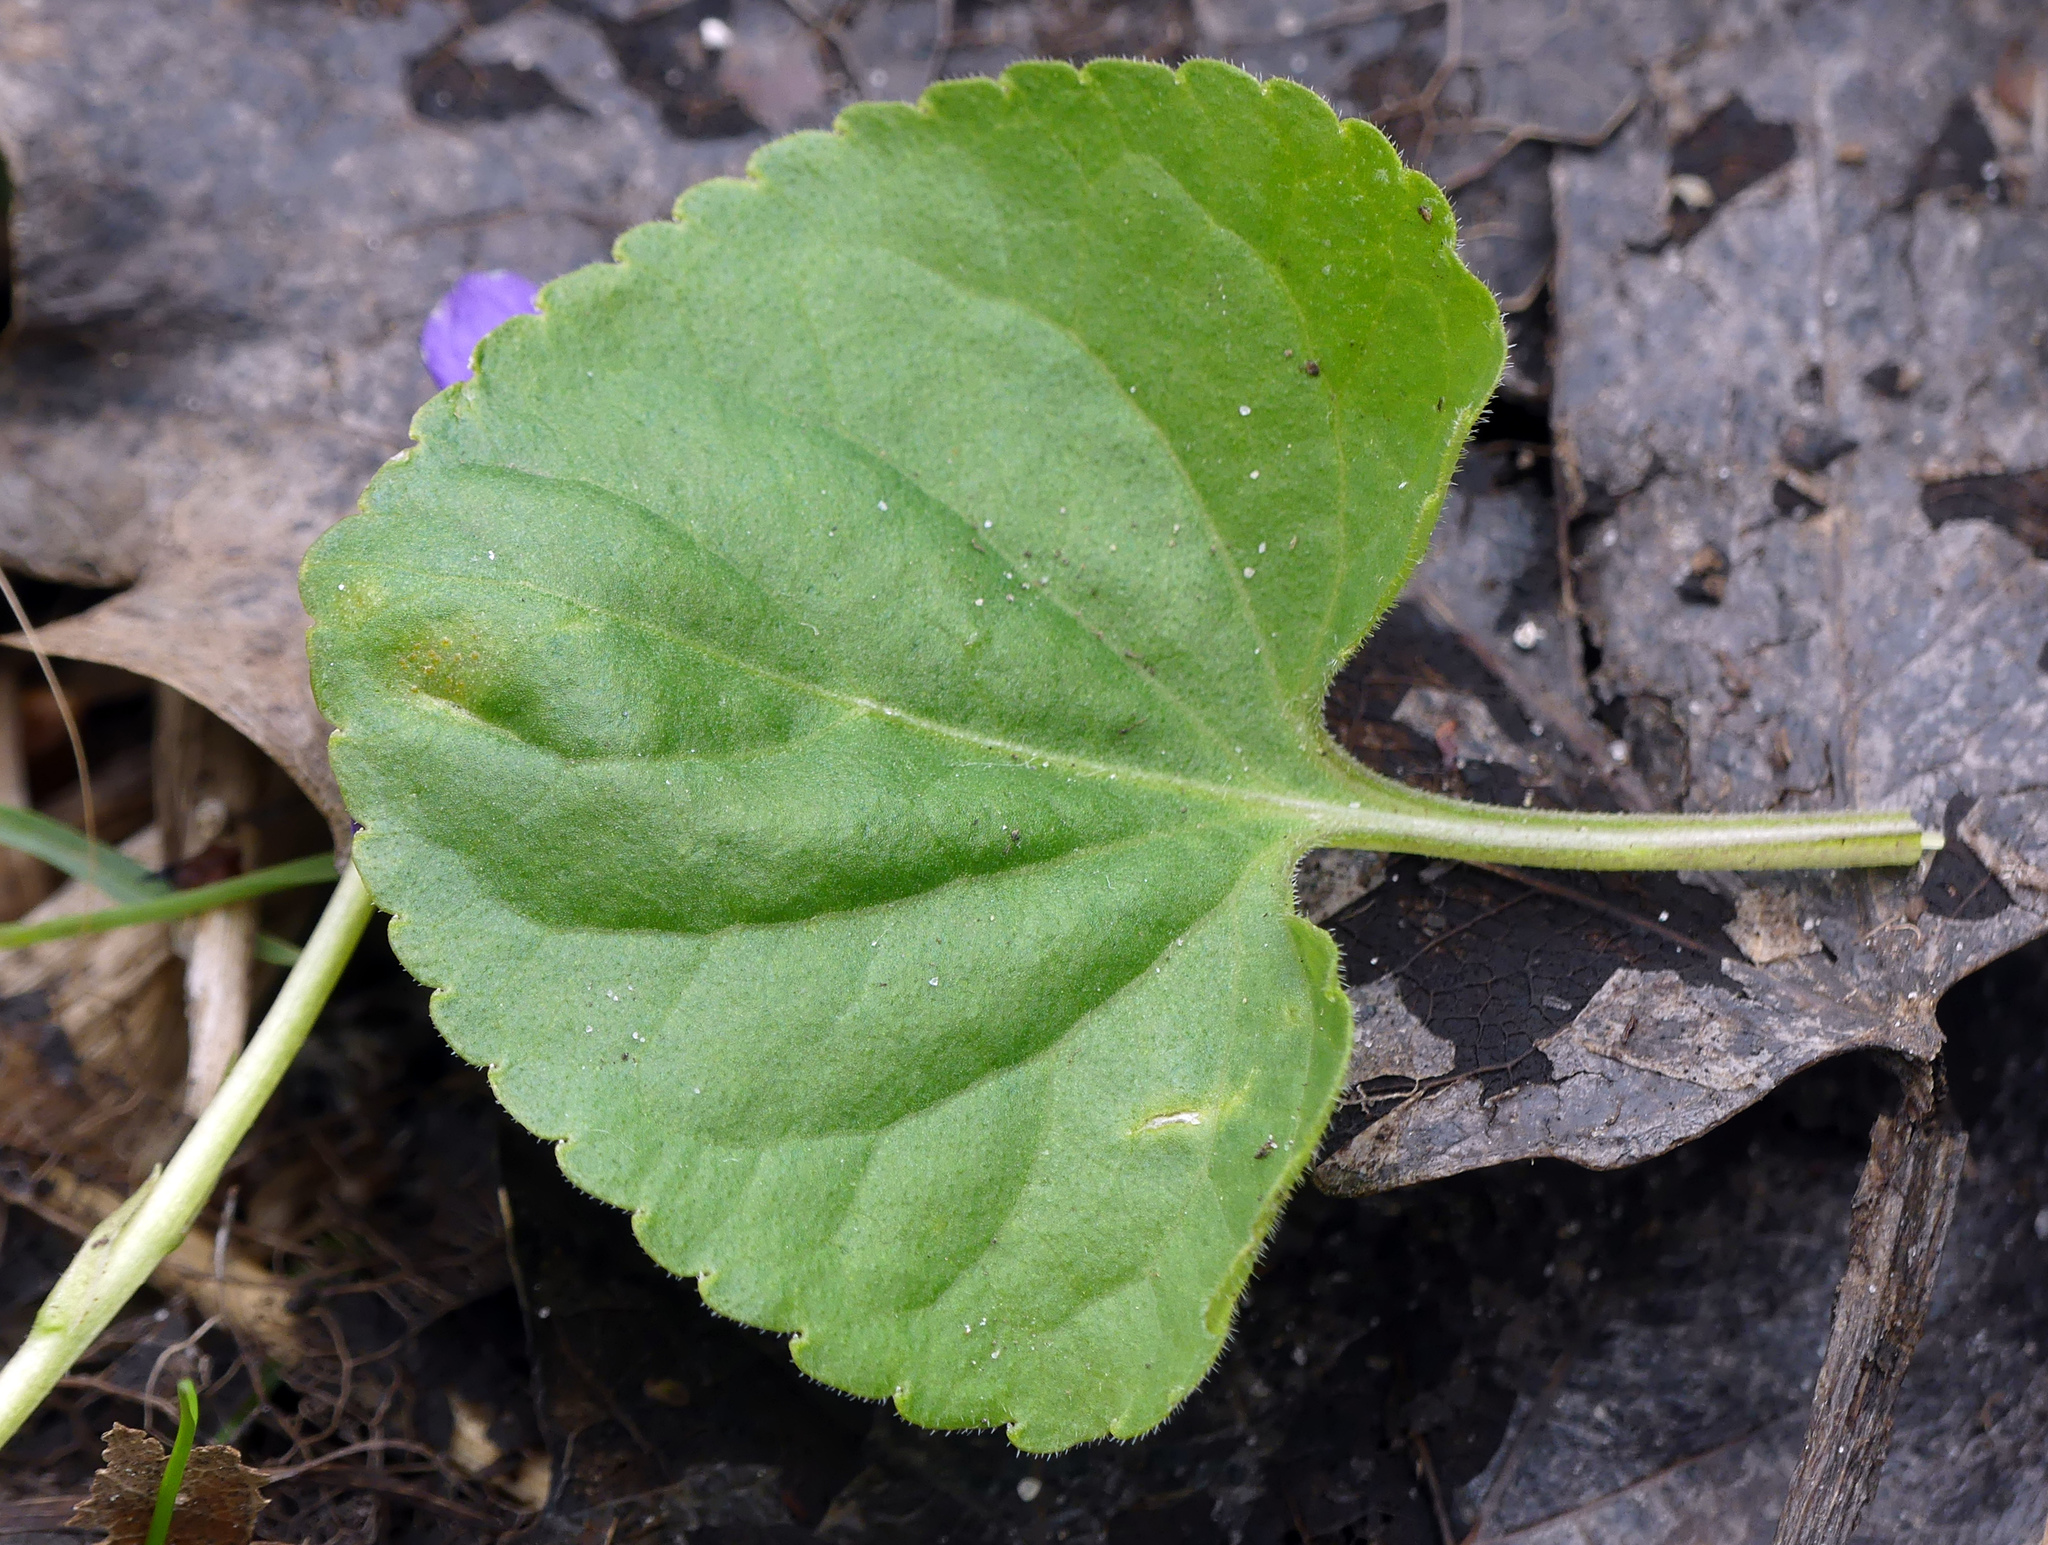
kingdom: Plantae
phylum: Tracheophyta
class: Magnoliopsida
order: Malpighiales
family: Violaceae
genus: Viola
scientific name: Viola reichenbachiana
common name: Early dog-violet
